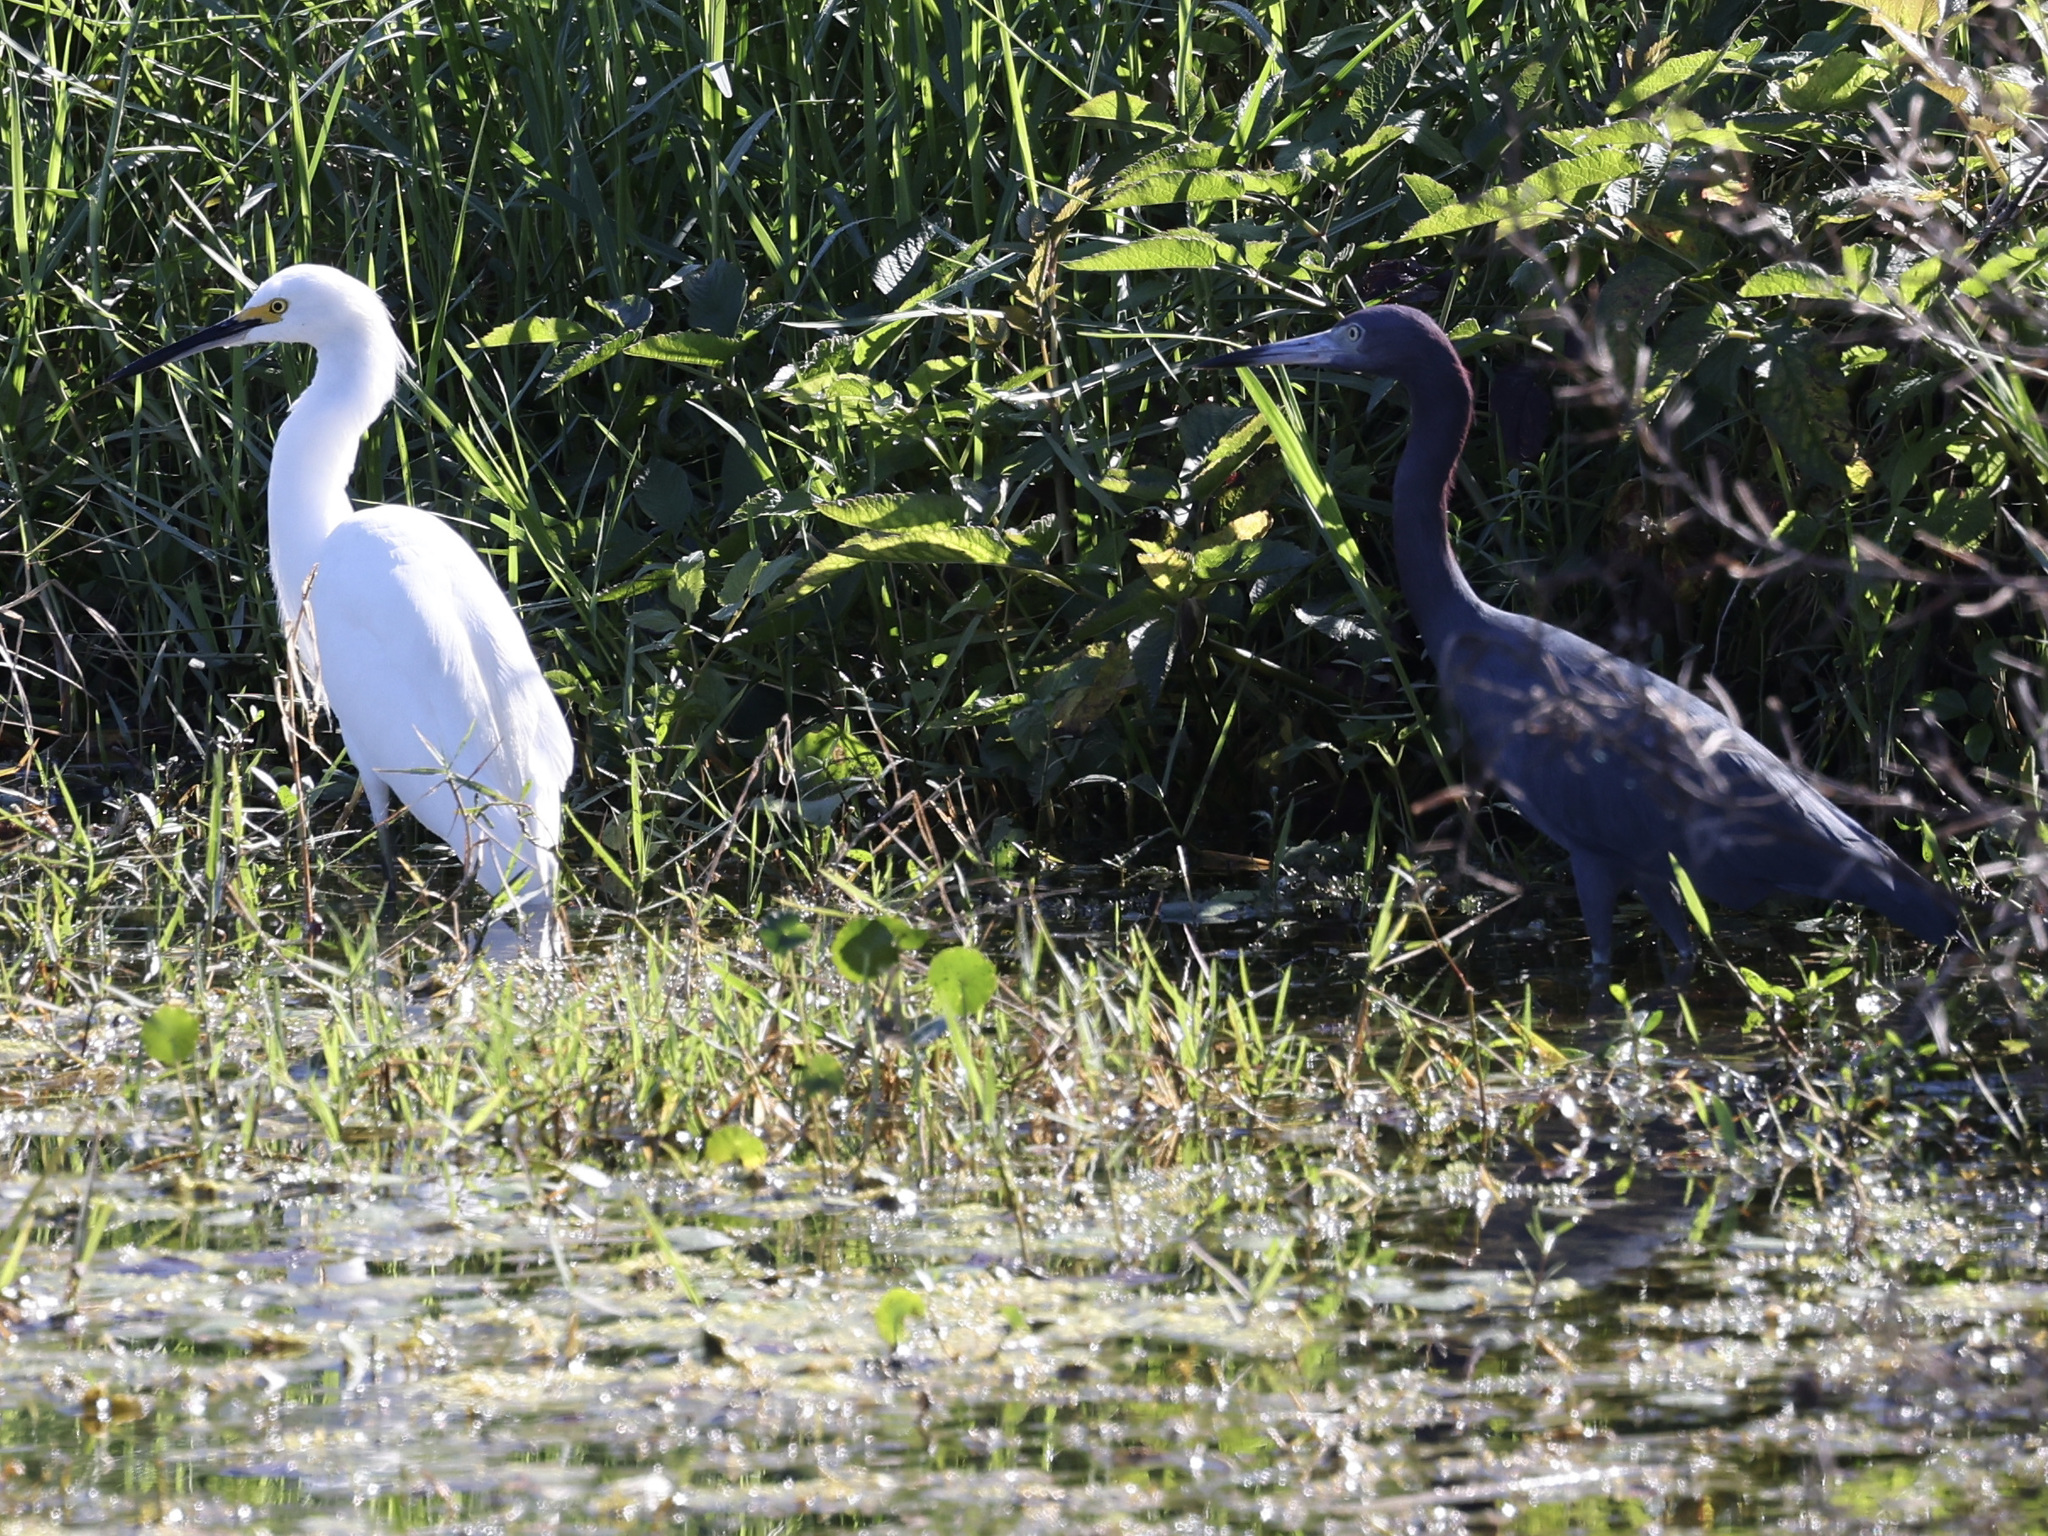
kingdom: Animalia
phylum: Chordata
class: Aves
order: Pelecaniformes
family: Ardeidae
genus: Egretta
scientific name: Egretta caerulea
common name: Little blue heron
